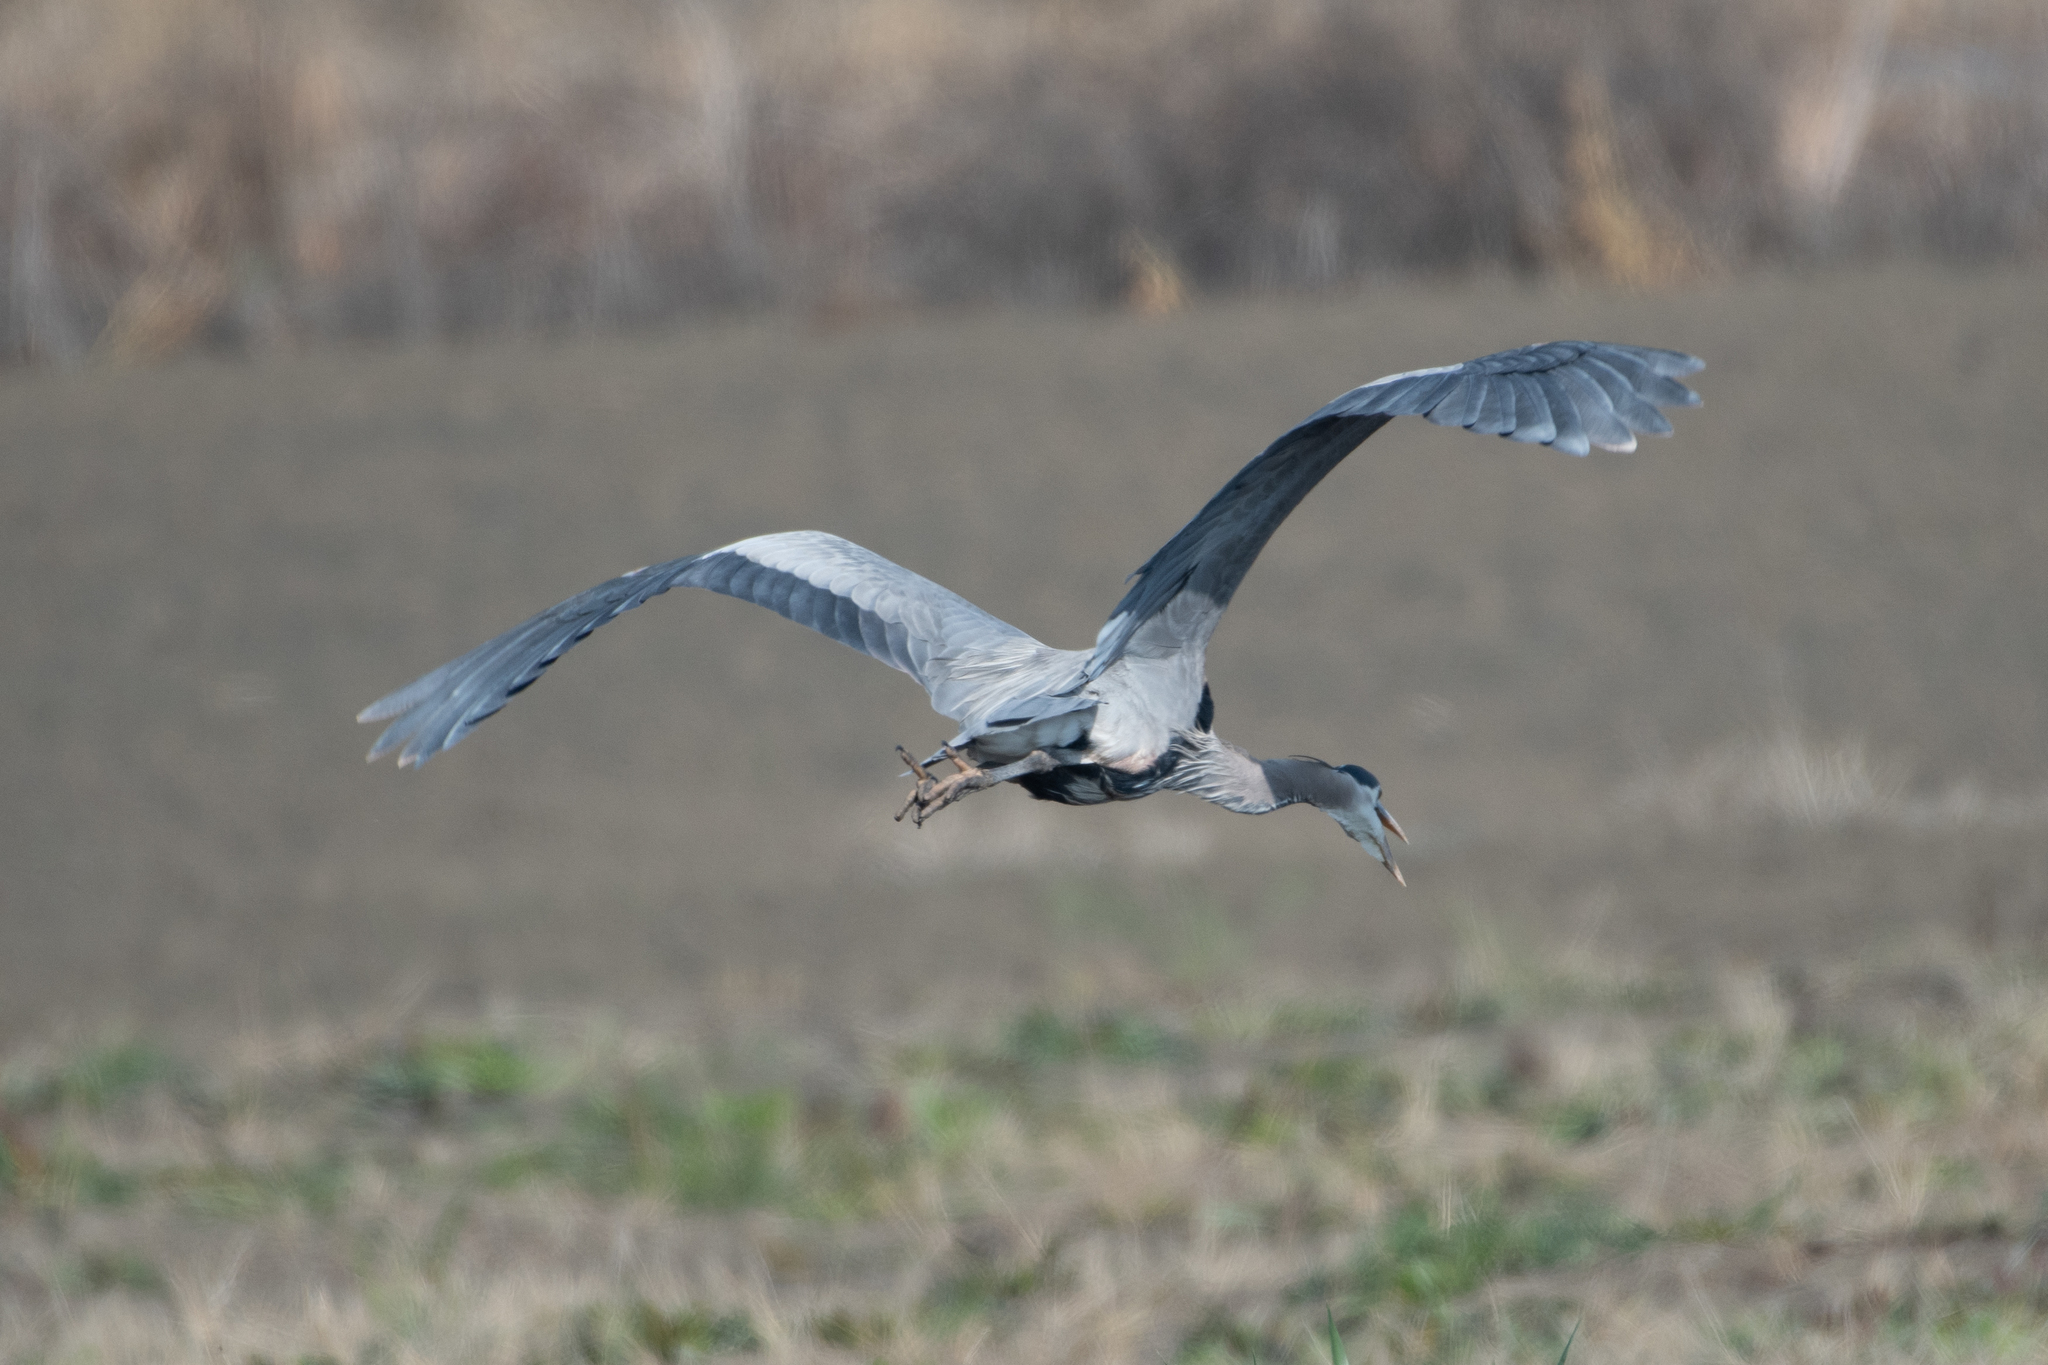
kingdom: Animalia
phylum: Chordata
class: Aves
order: Pelecaniformes
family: Ardeidae
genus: Ardea
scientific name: Ardea herodias
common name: Great blue heron
